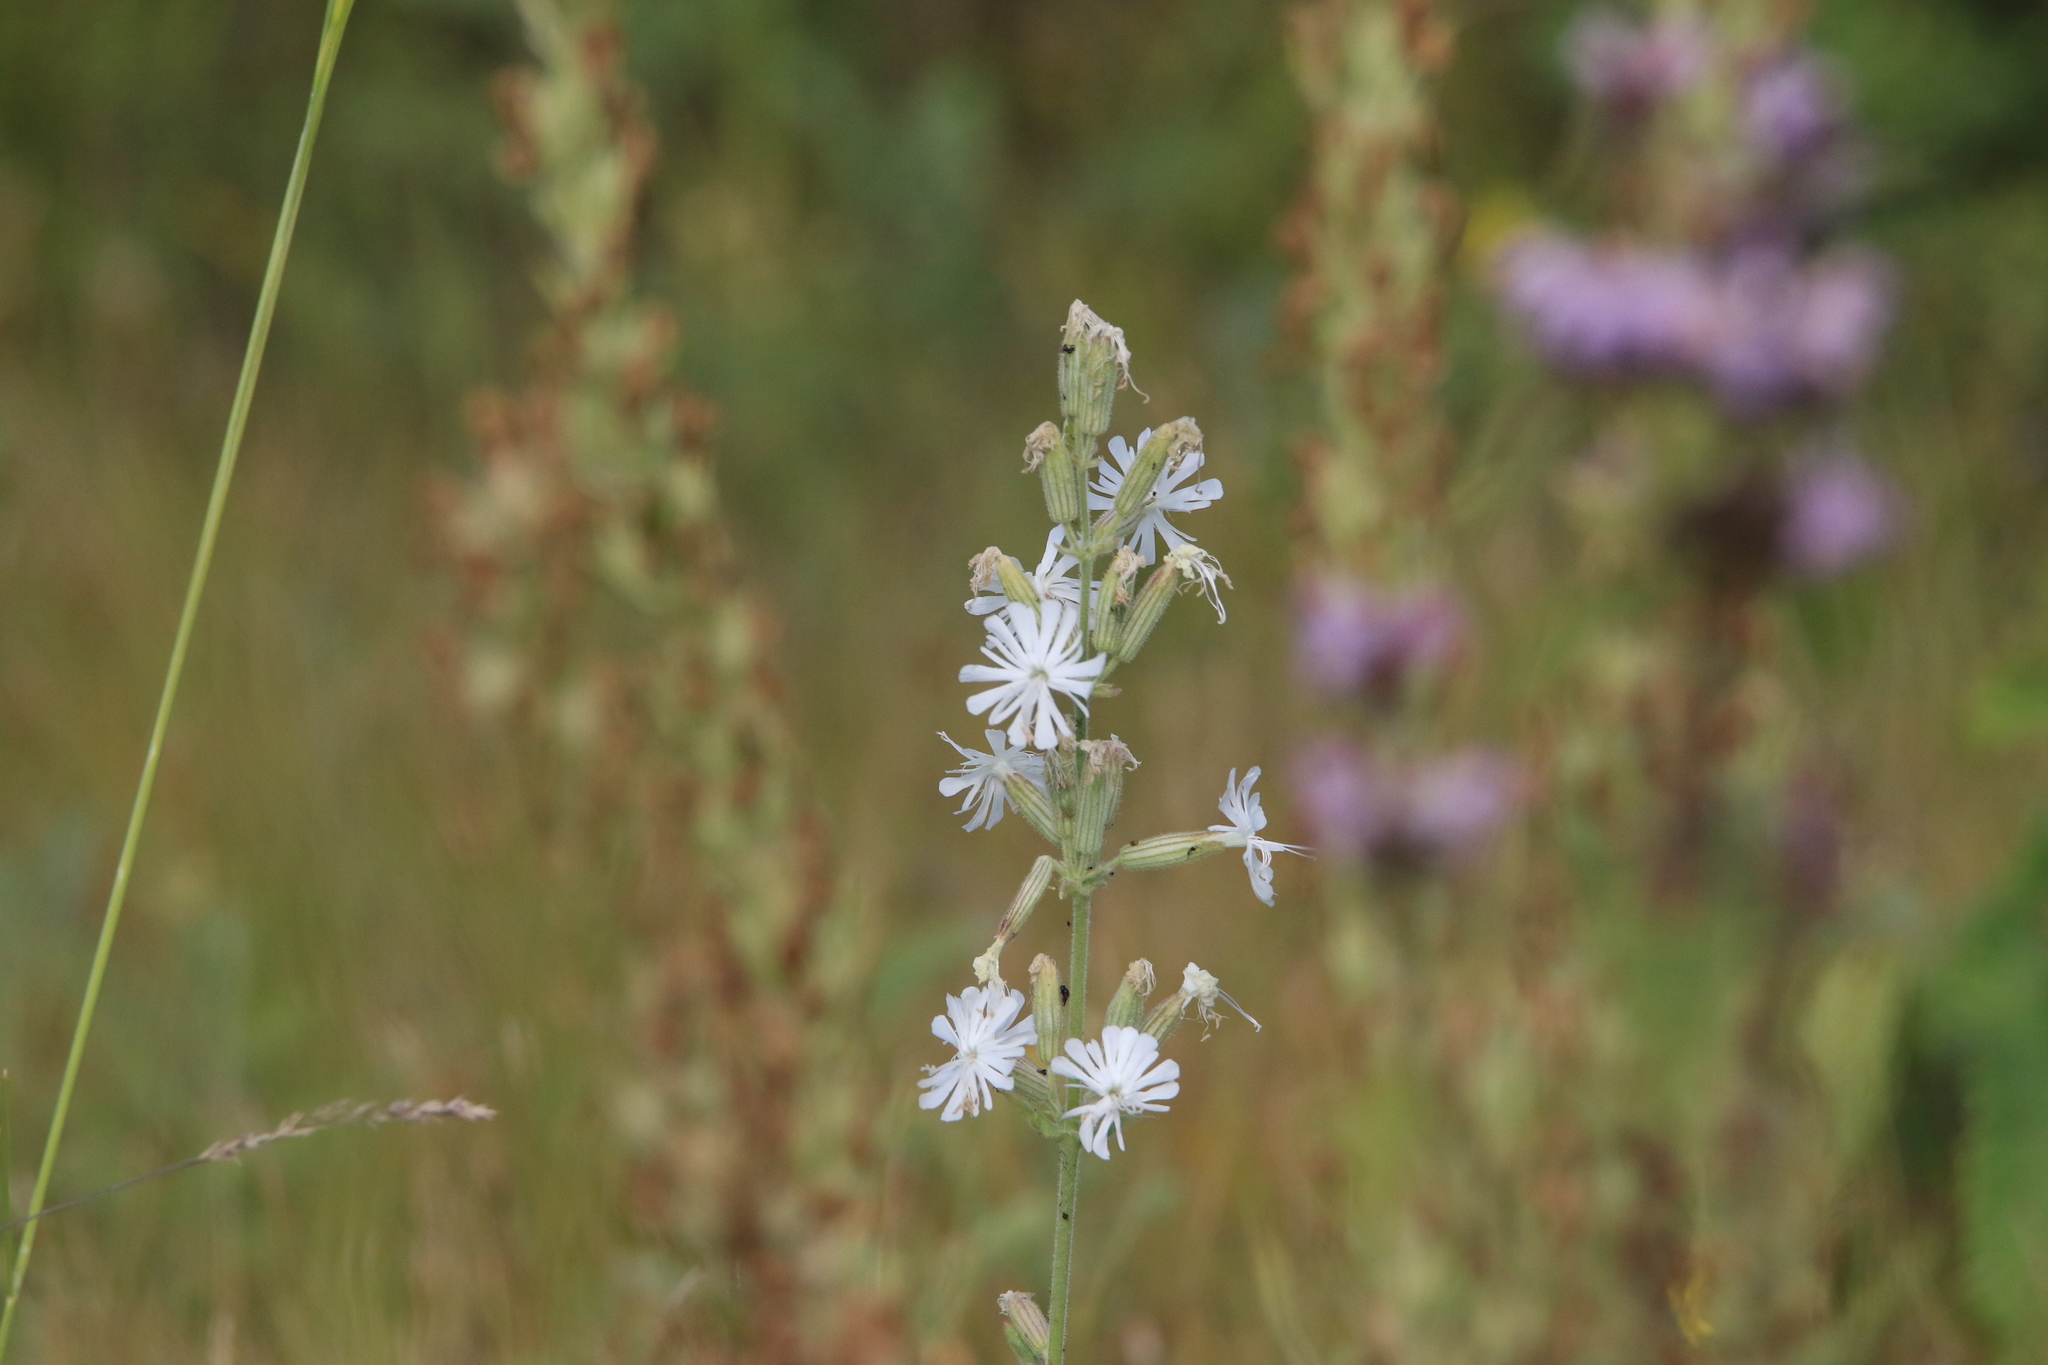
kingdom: Plantae
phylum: Tracheophyta
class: Magnoliopsida
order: Caryophyllales
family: Caryophyllaceae
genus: Silene
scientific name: Silene viscosa
